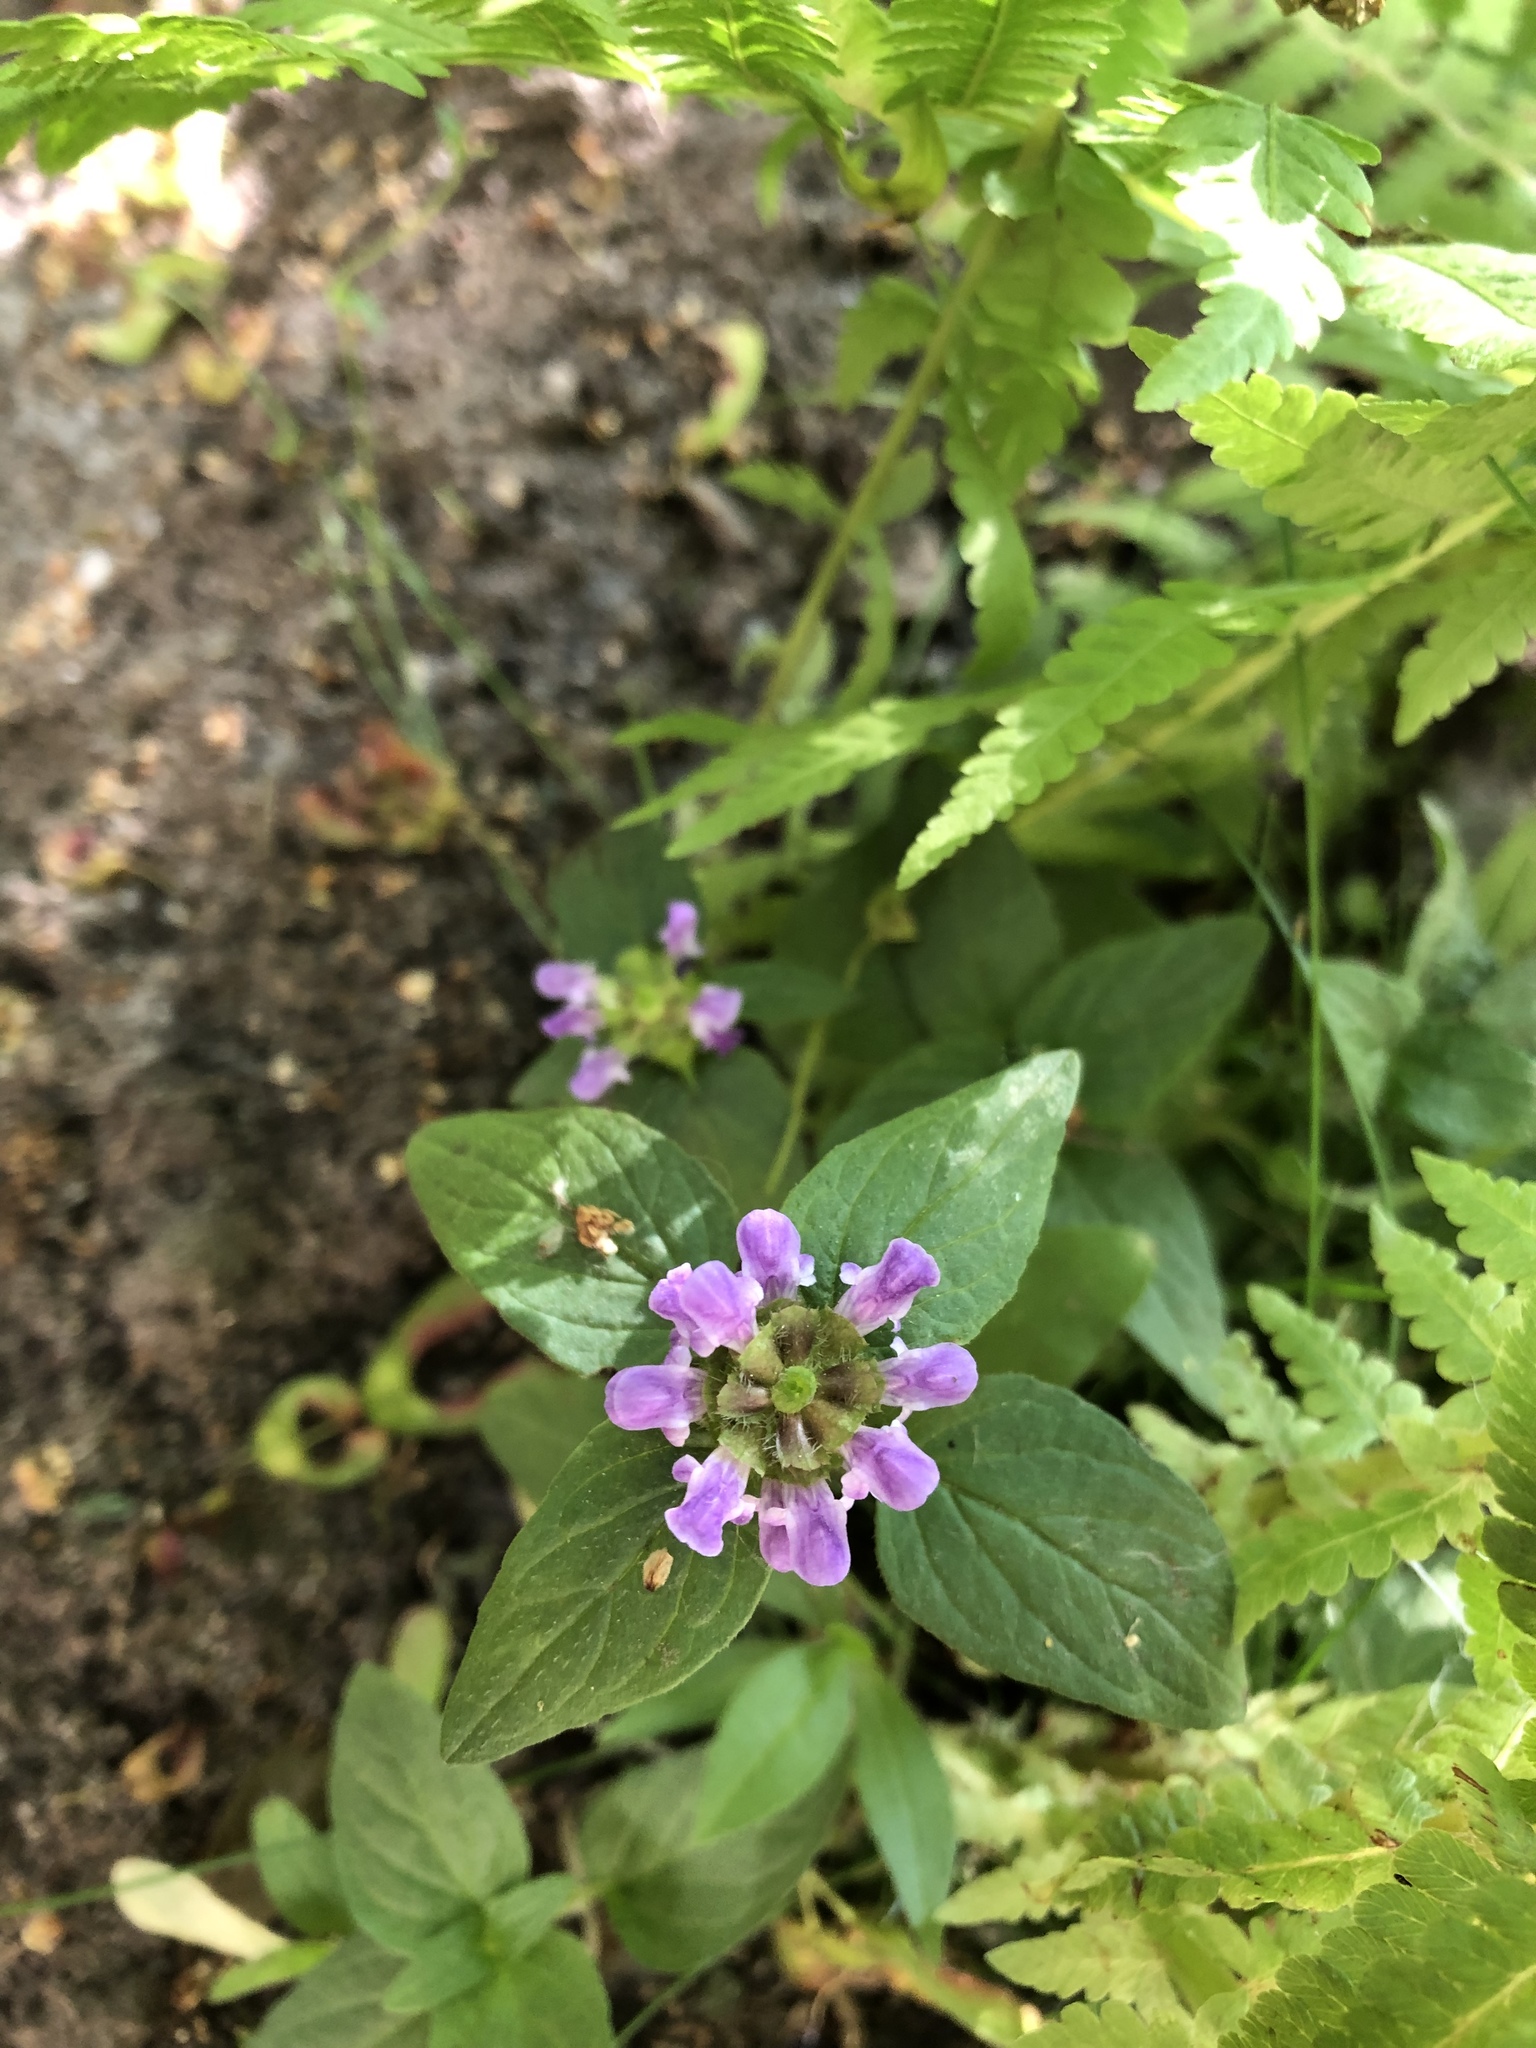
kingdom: Plantae
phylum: Tracheophyta
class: Magnoliopsida
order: Lamiales
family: Lamiaceae
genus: Prunella
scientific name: Prunella vulgaris
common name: Heal-all
